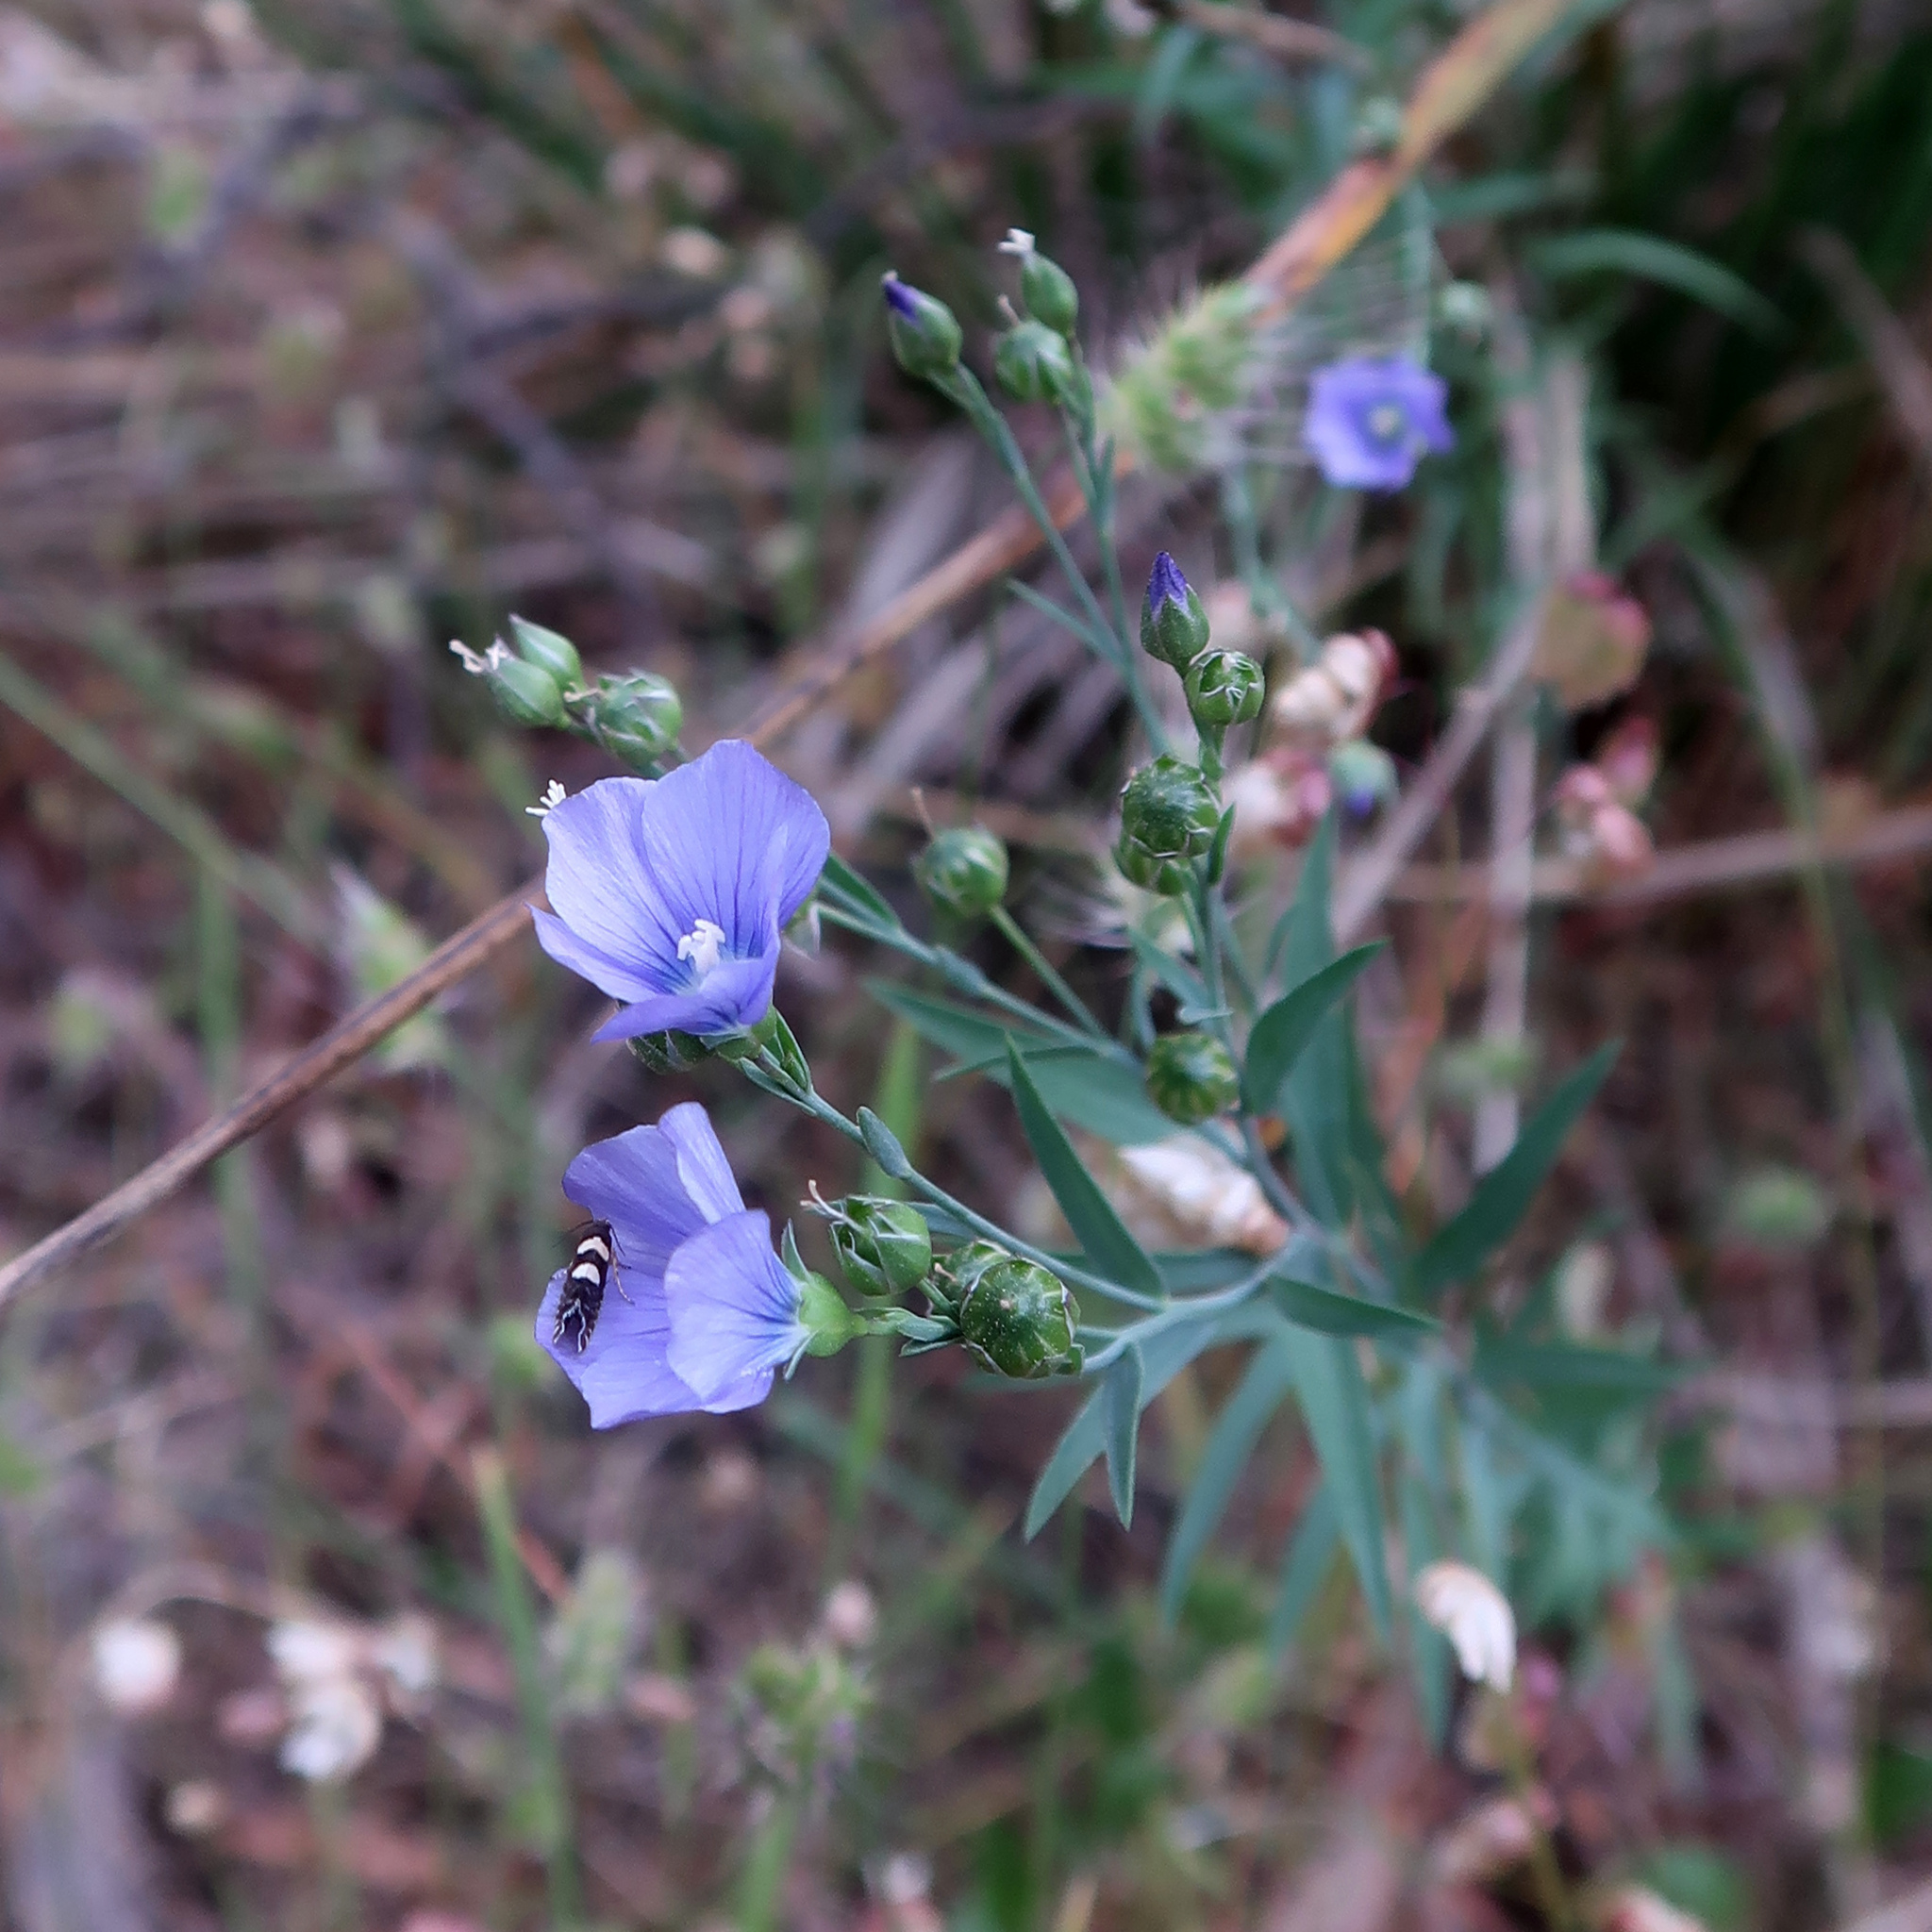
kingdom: Plantae
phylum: Tracheophyta
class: Magnoliopsida
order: Malpighiales
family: Linaceae
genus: Linum
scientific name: Linum marginale
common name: Wild flax
